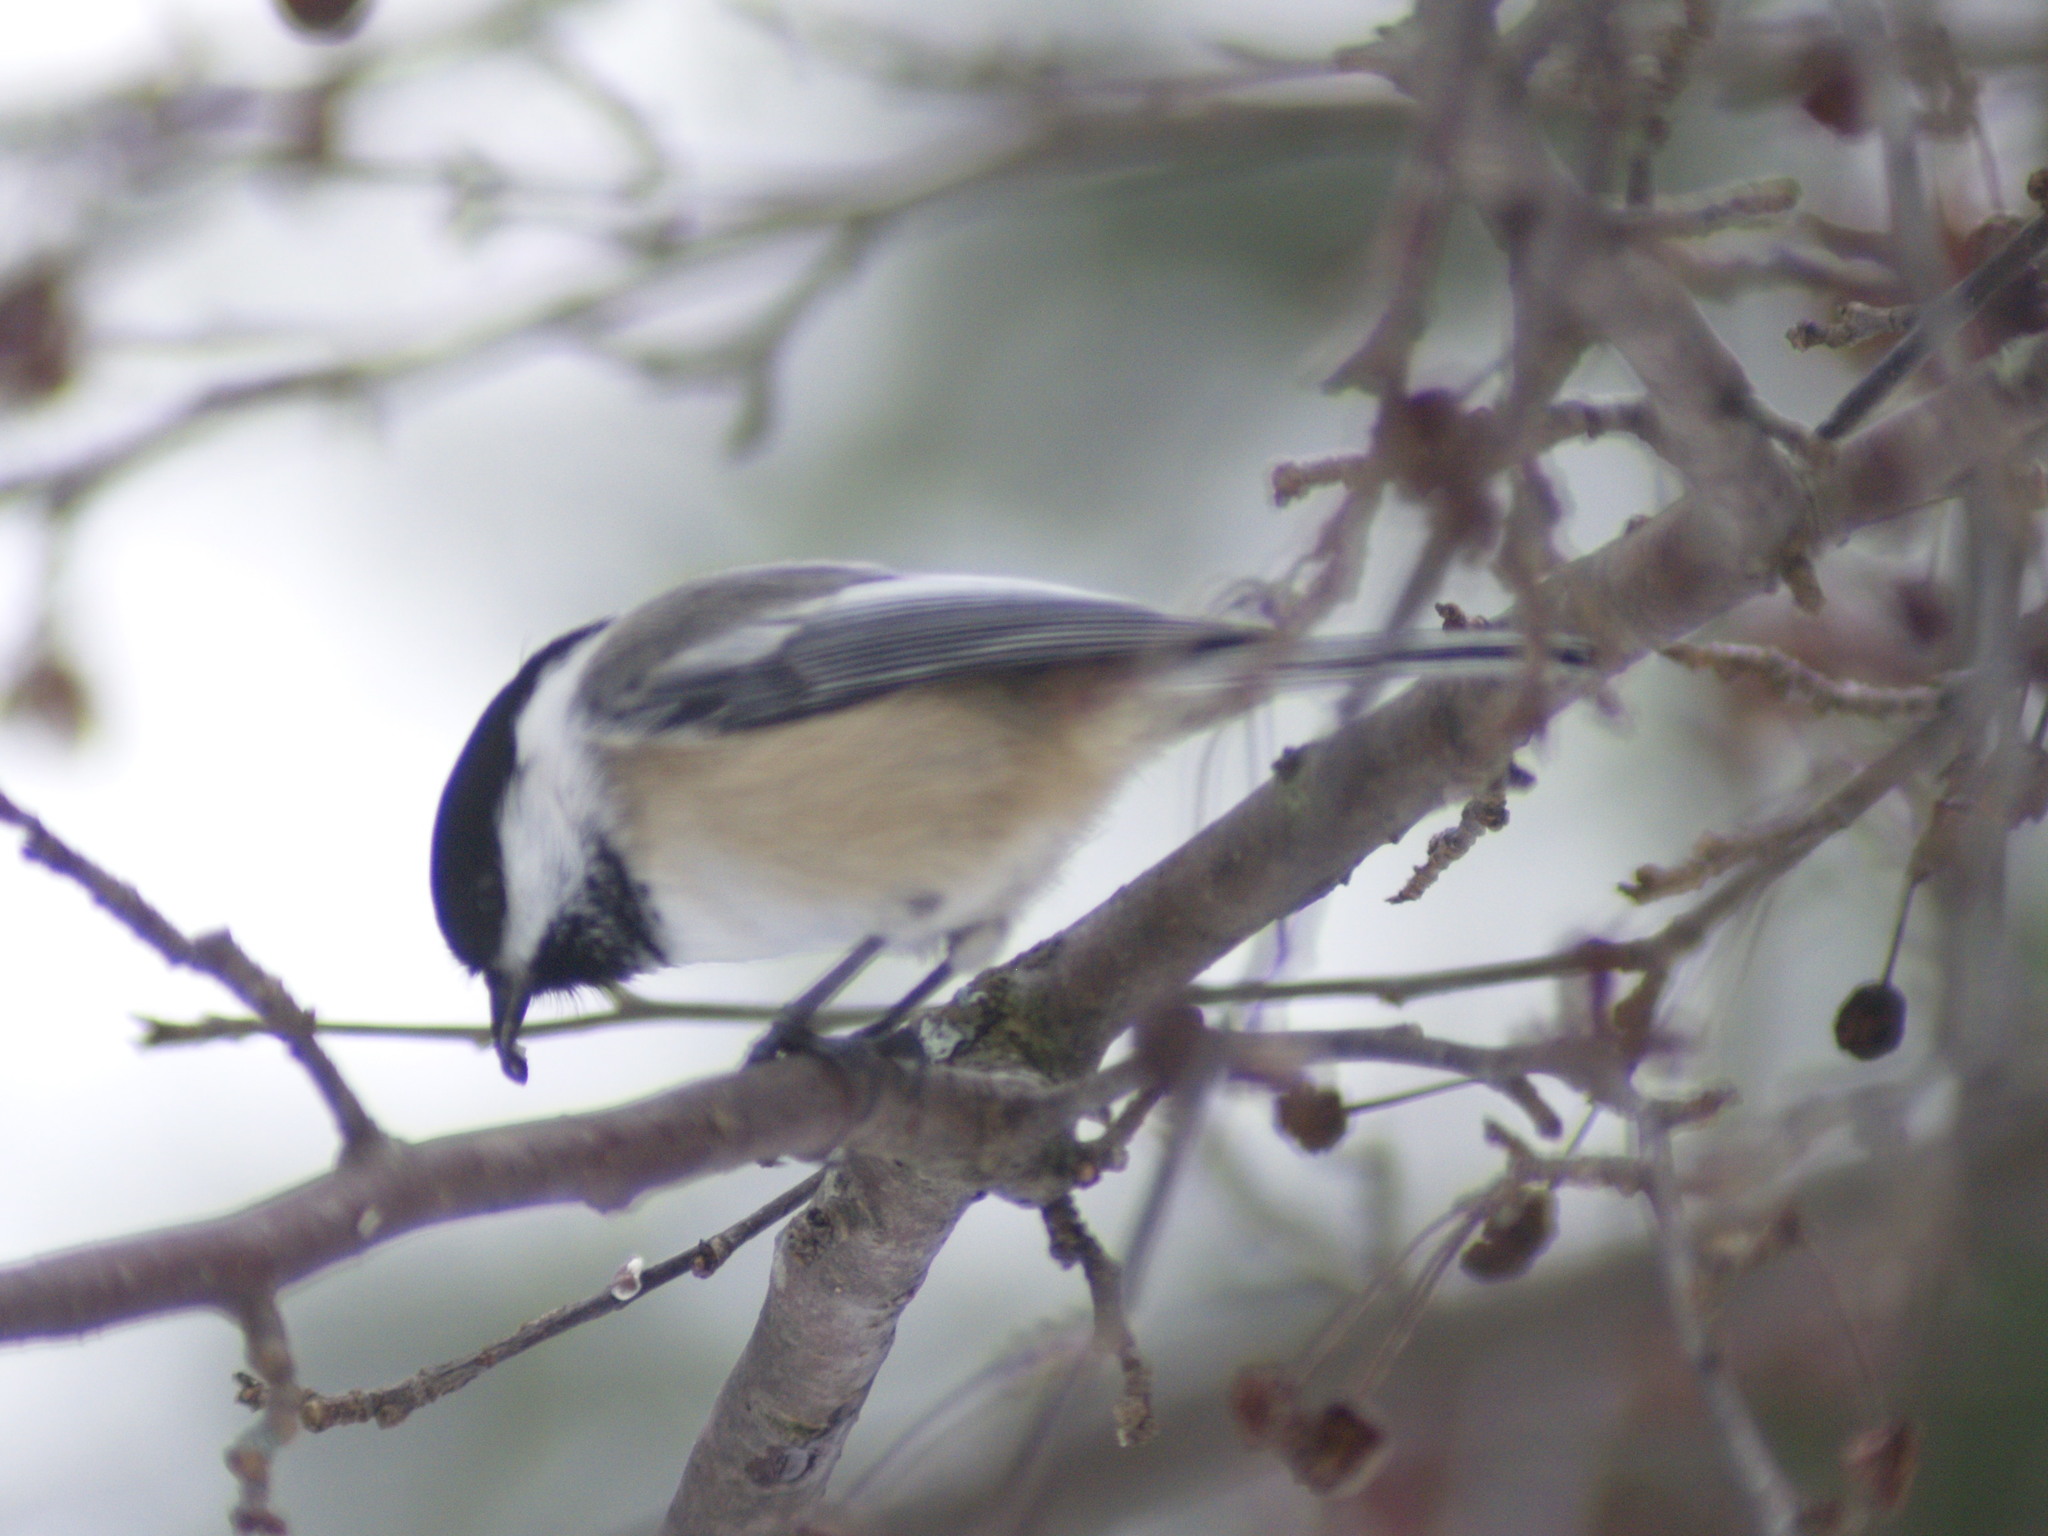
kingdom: Animalia
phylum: Chordata
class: Aves
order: Passeriformes
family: Paridae
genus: Poecile
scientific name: Poecile atricapillus
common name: Black-capped chickadee
